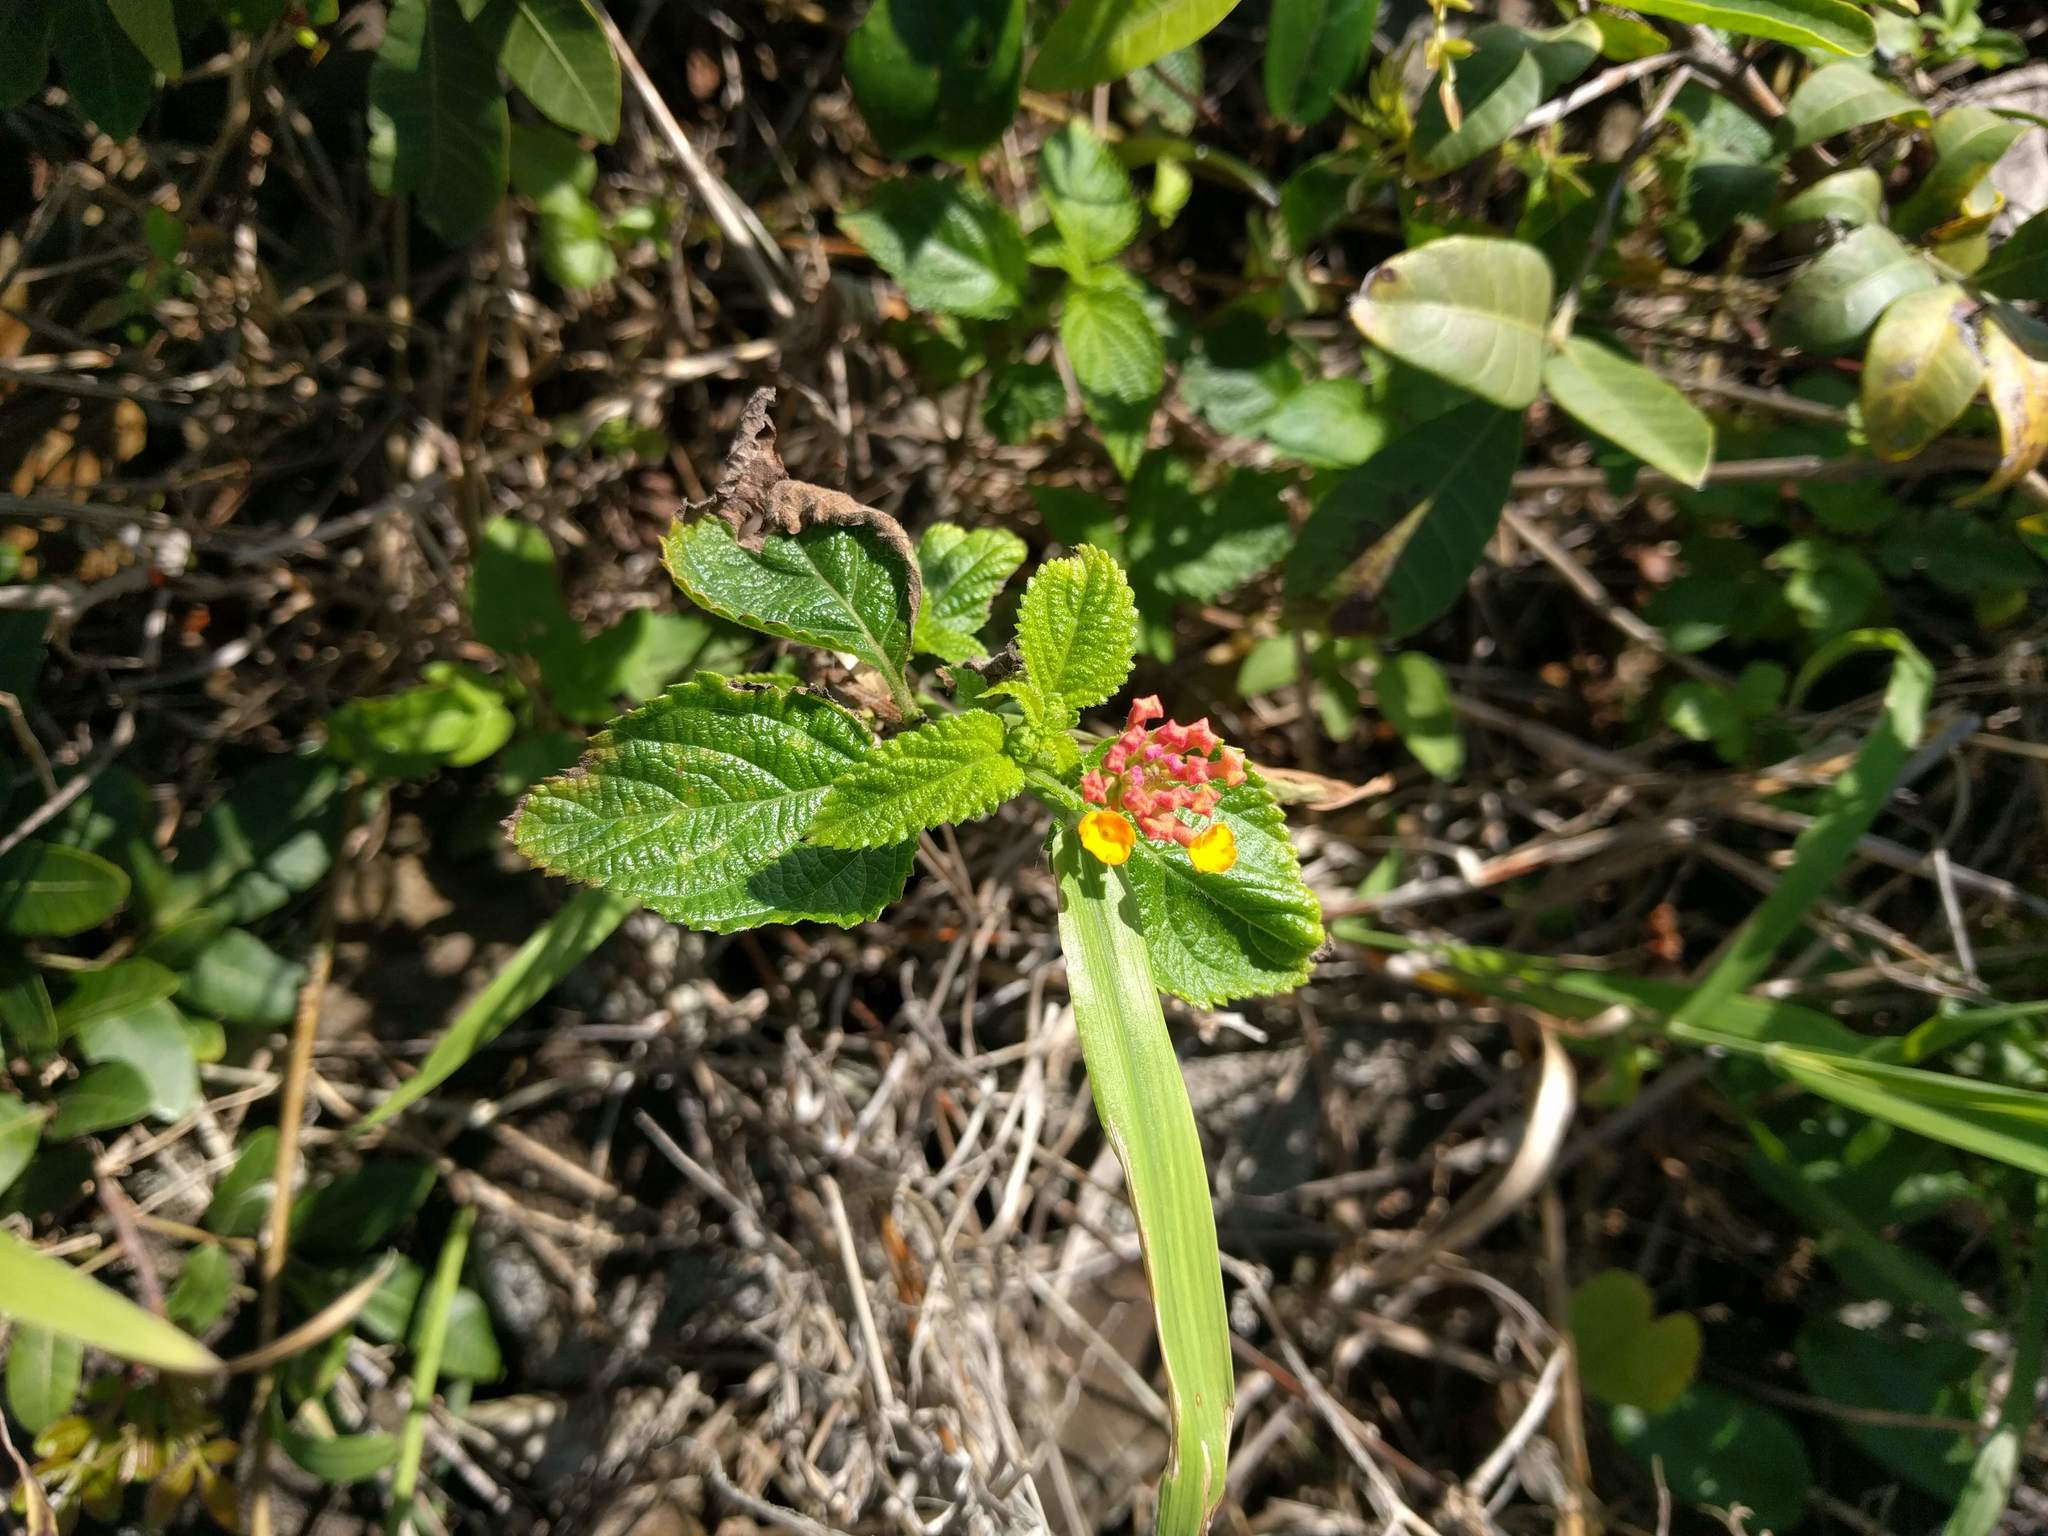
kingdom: Plantae
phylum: Tracheophyta
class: Magnoliopsida
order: Lamiales
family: Verbenaceae
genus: Lantana
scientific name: Lantana camara
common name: Lantana
